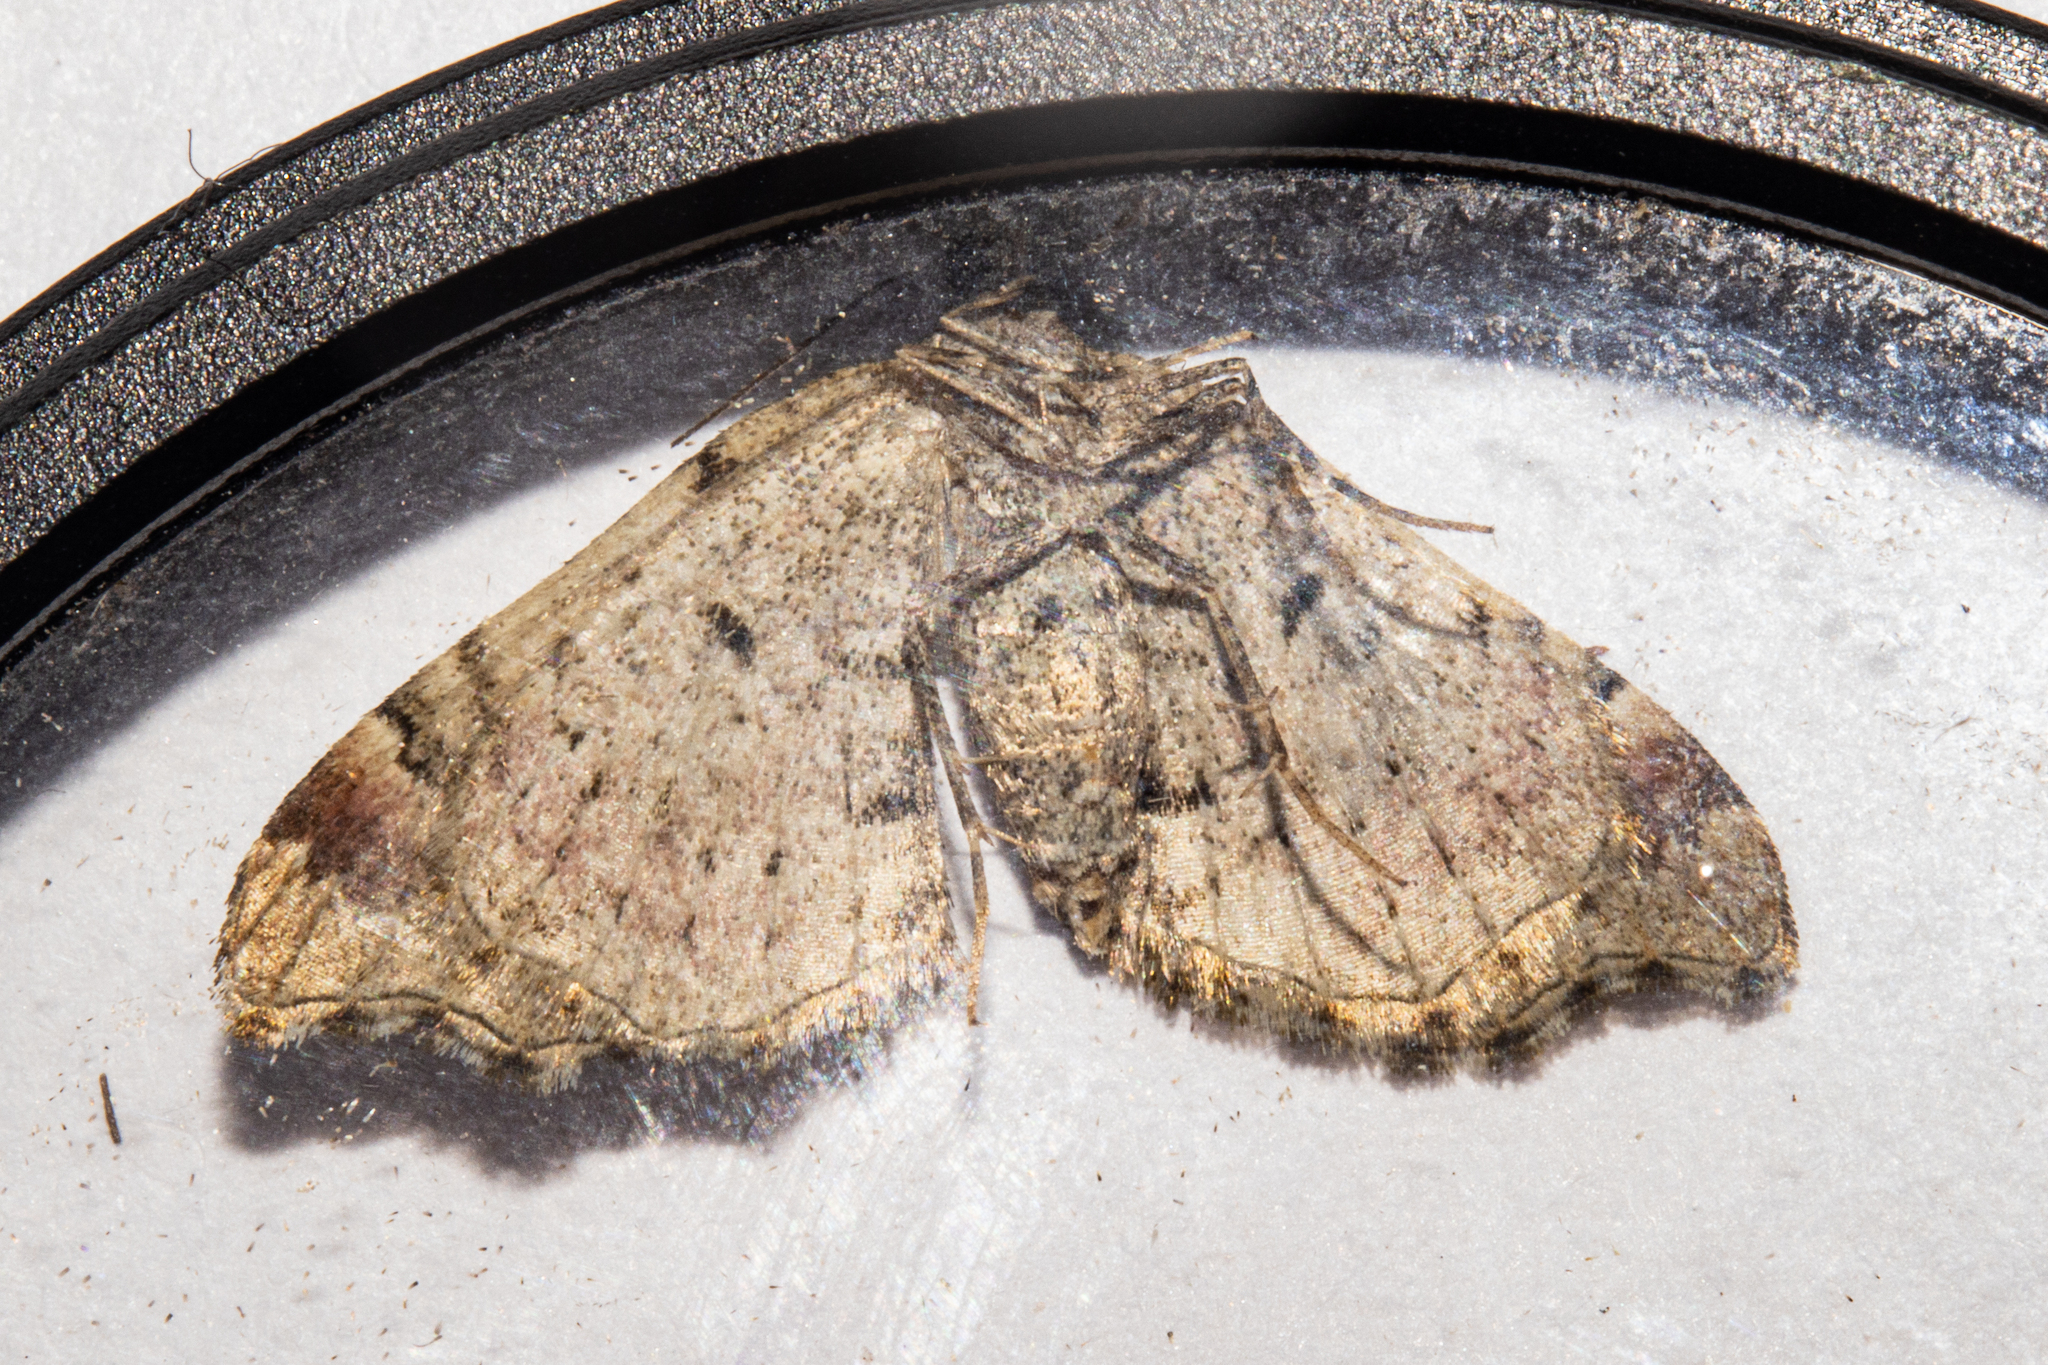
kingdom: Animalia
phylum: Arthropoda
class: Insecta
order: Lepidoptera
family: Geometridae
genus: Helastia
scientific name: Helastia cymozeucta
